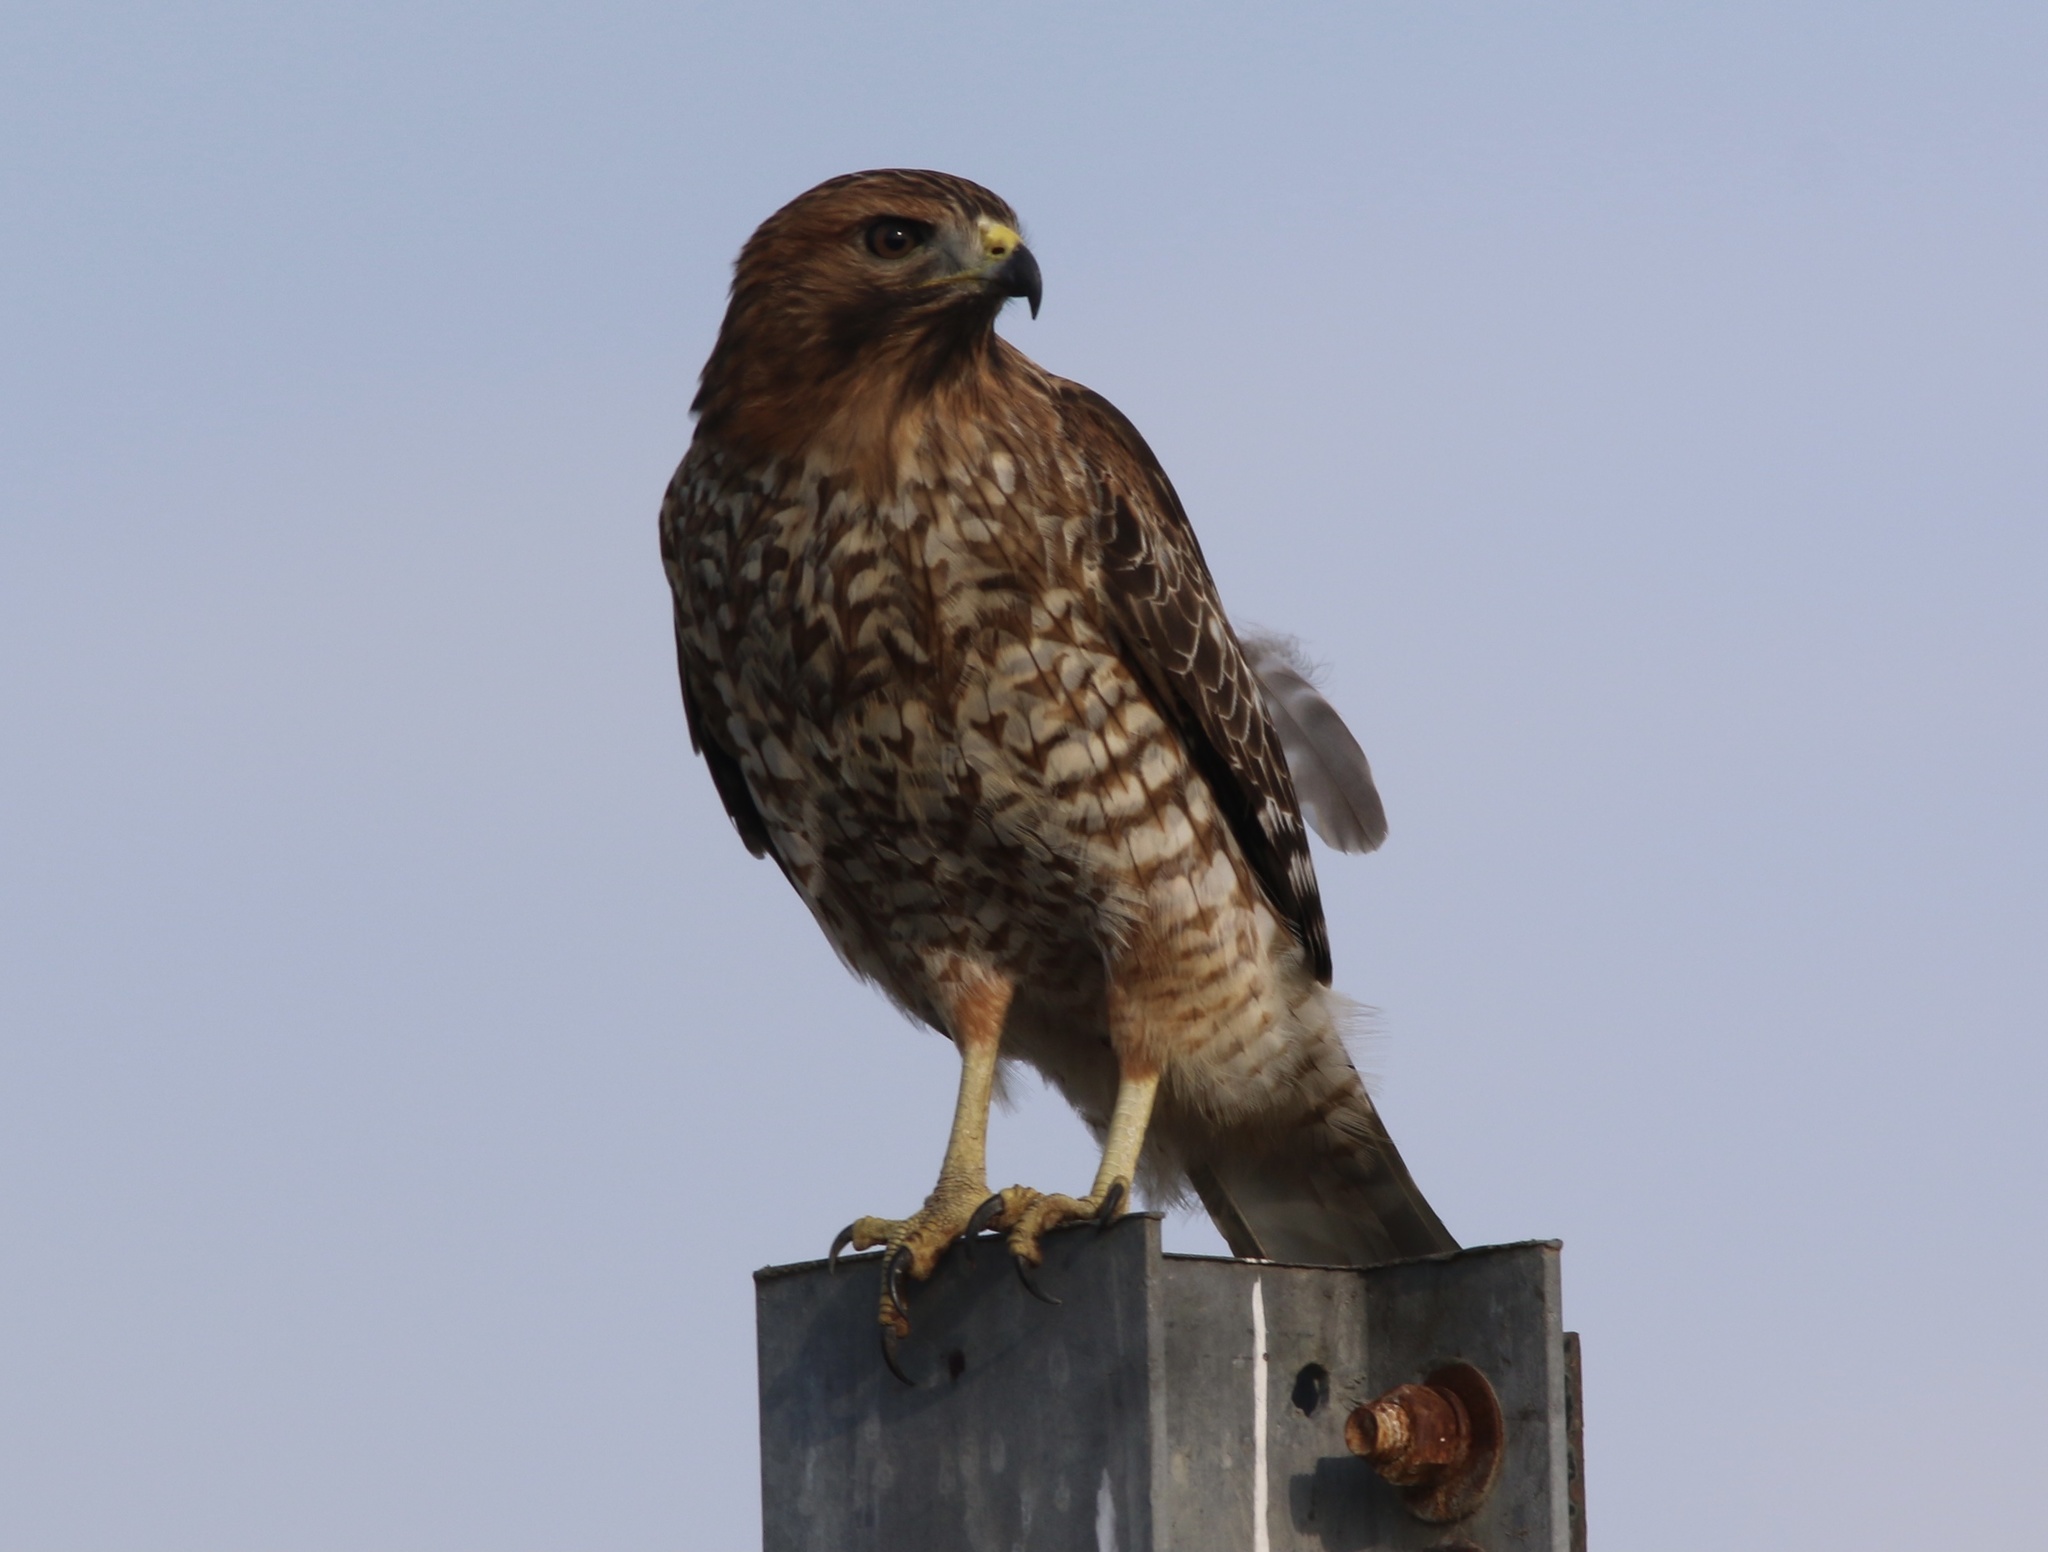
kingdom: Animalia
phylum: Chordata
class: Aves
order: Accipitriformes
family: Accipitridae
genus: Buteo
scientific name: Buteo lineatus
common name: Red-shouldered hawk
